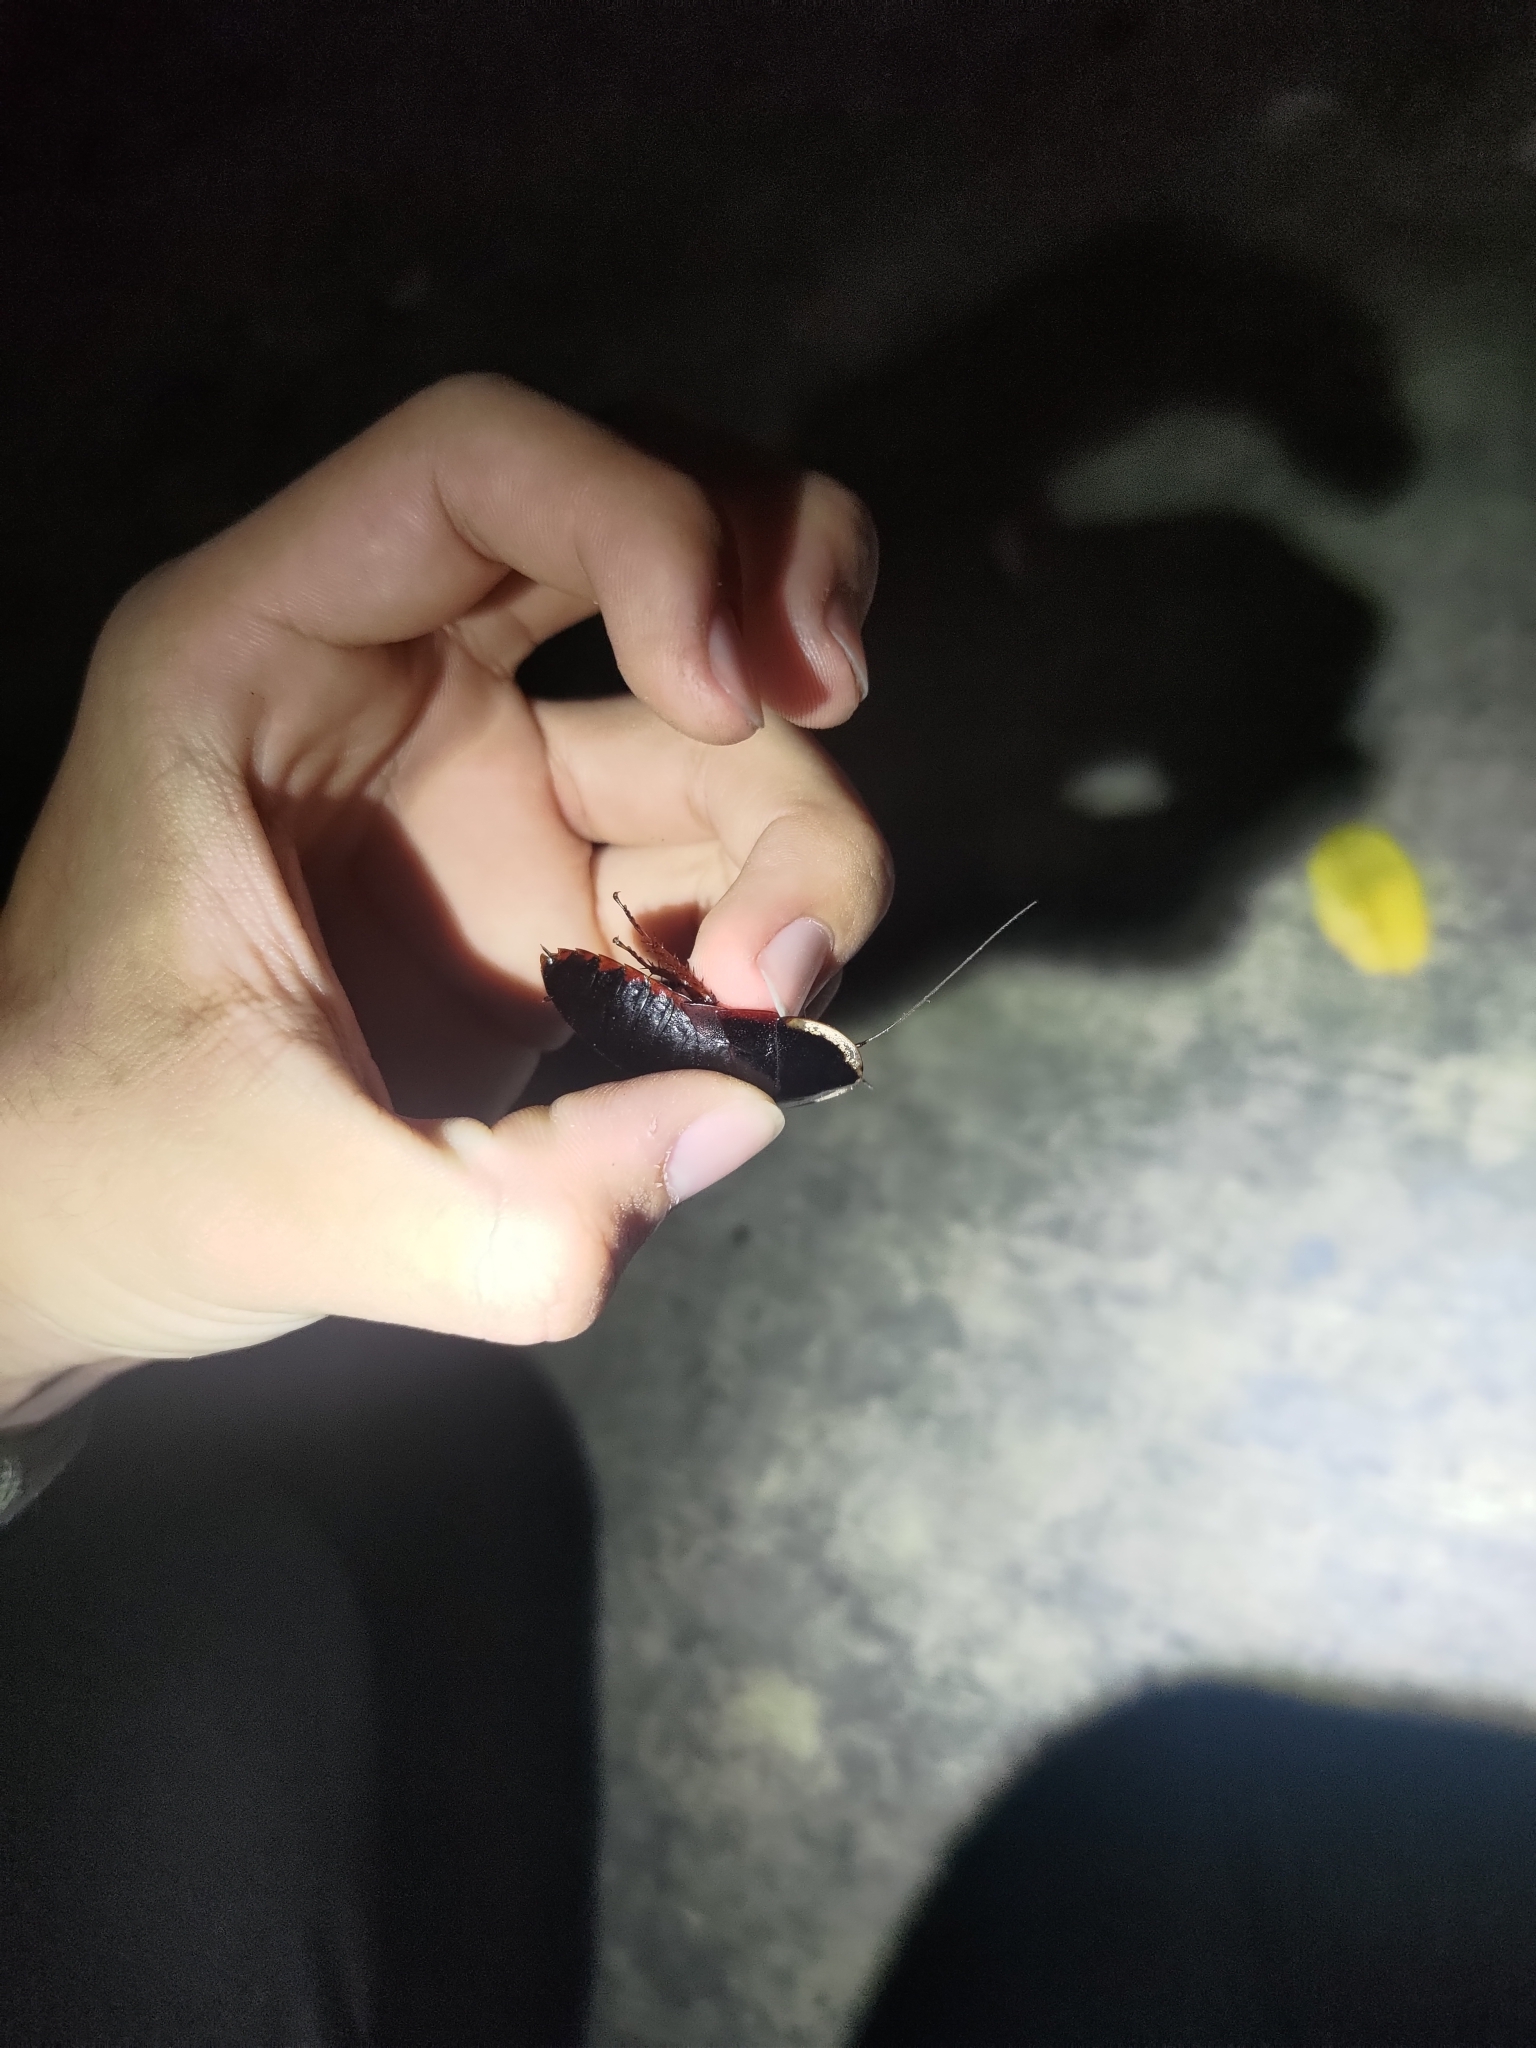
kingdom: Animalia
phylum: Arthropoda
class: Insecta
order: Blattodea
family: Blaberidae
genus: Opisthoplatia
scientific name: Opisthoplatia orientalis
